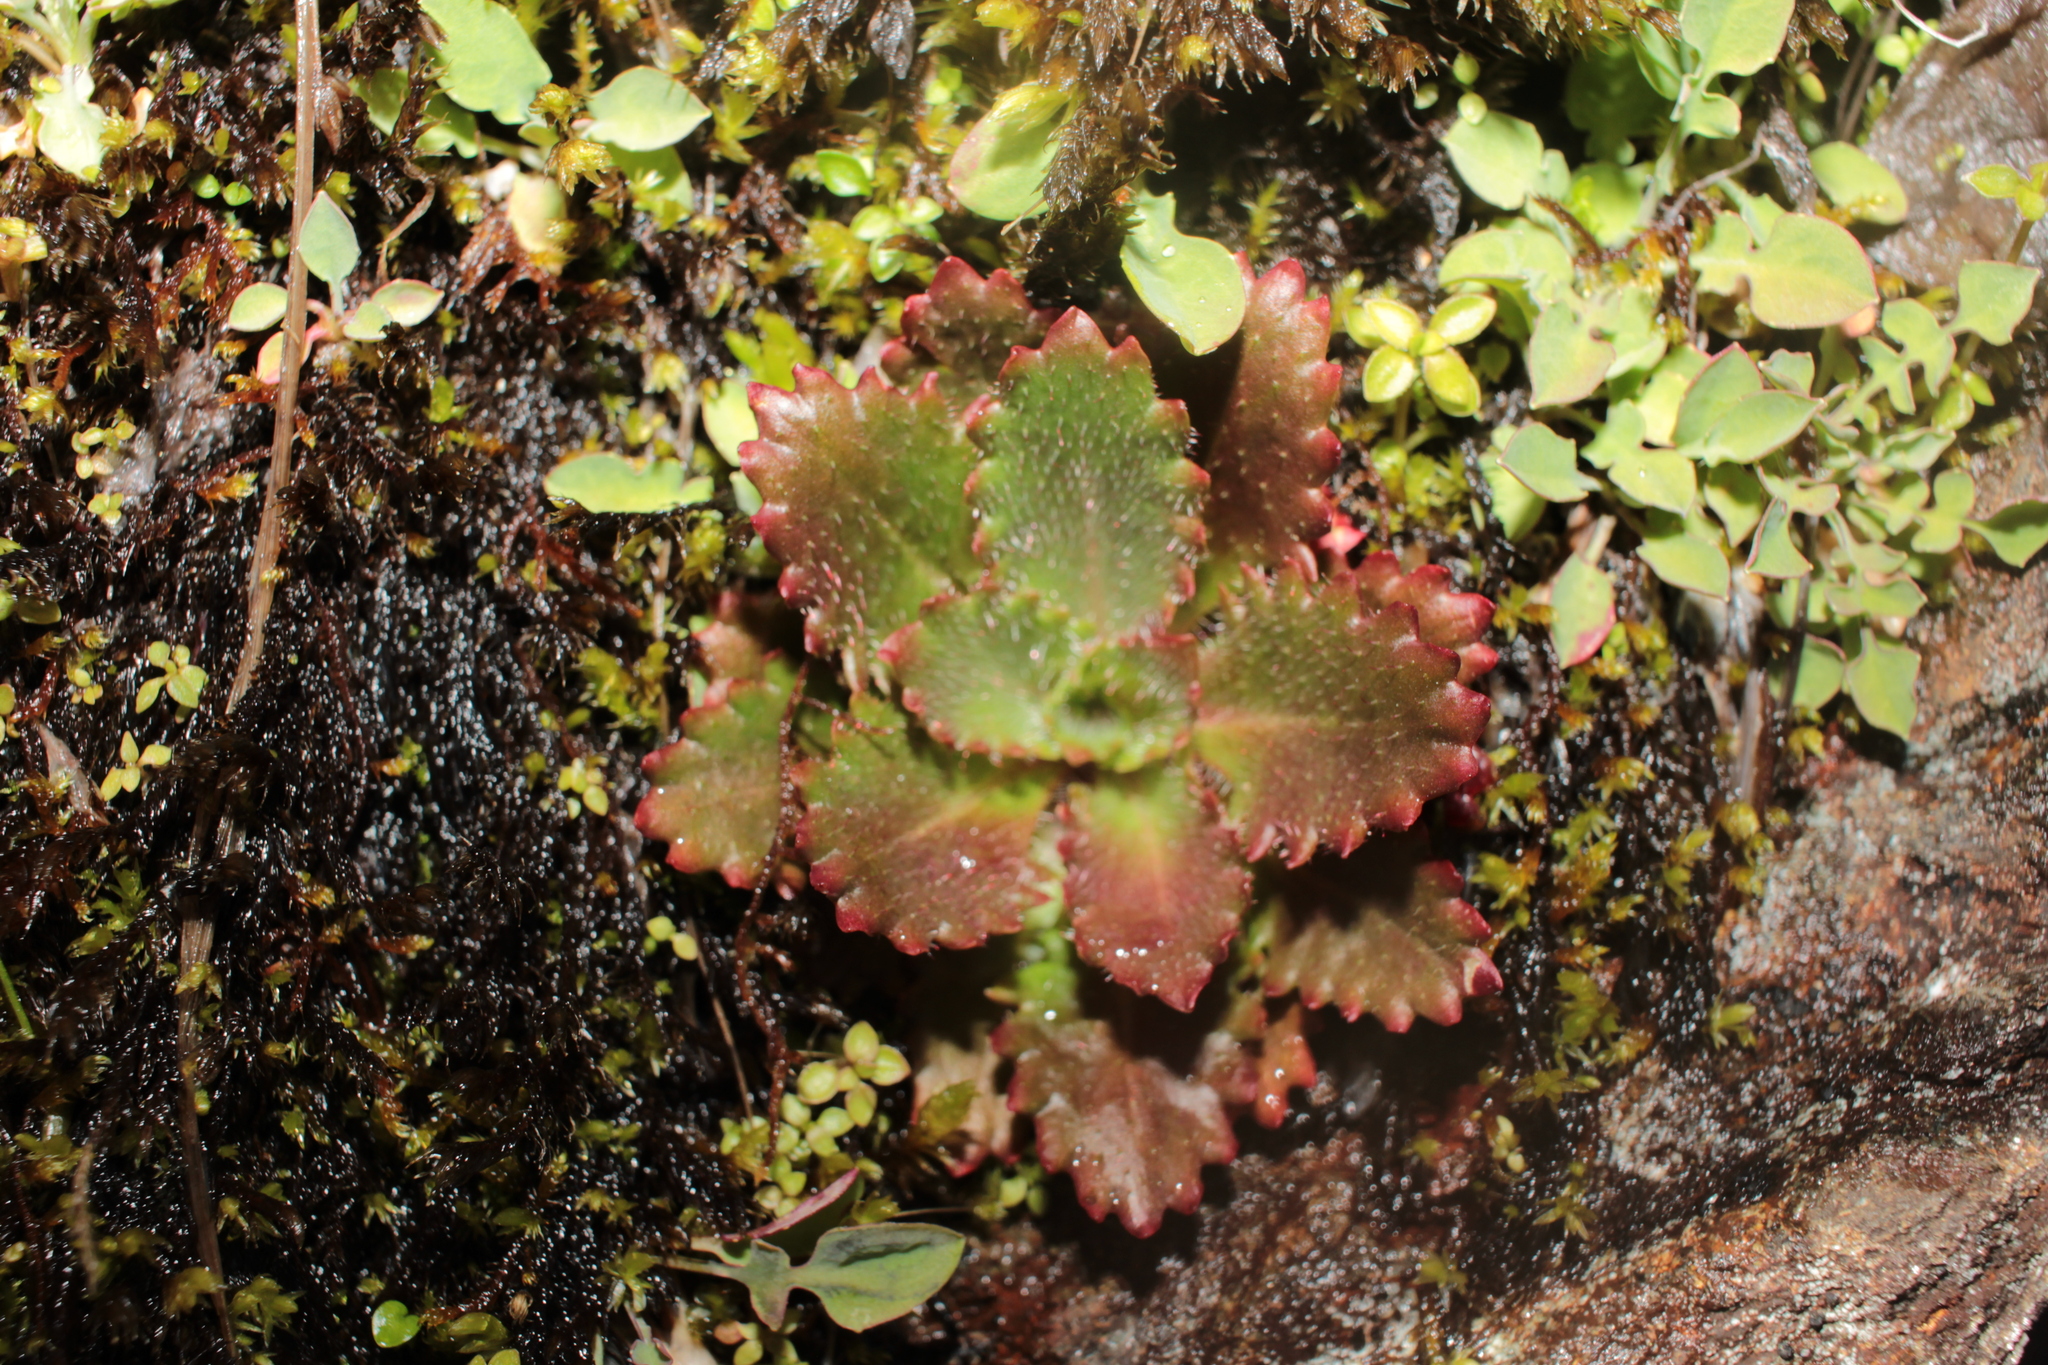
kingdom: Plantae
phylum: Tracheophyta
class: Magnoliopsida
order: Saxifragales
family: Saxifragaceae
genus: Micranthes
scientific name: Micranthes petiolaris
